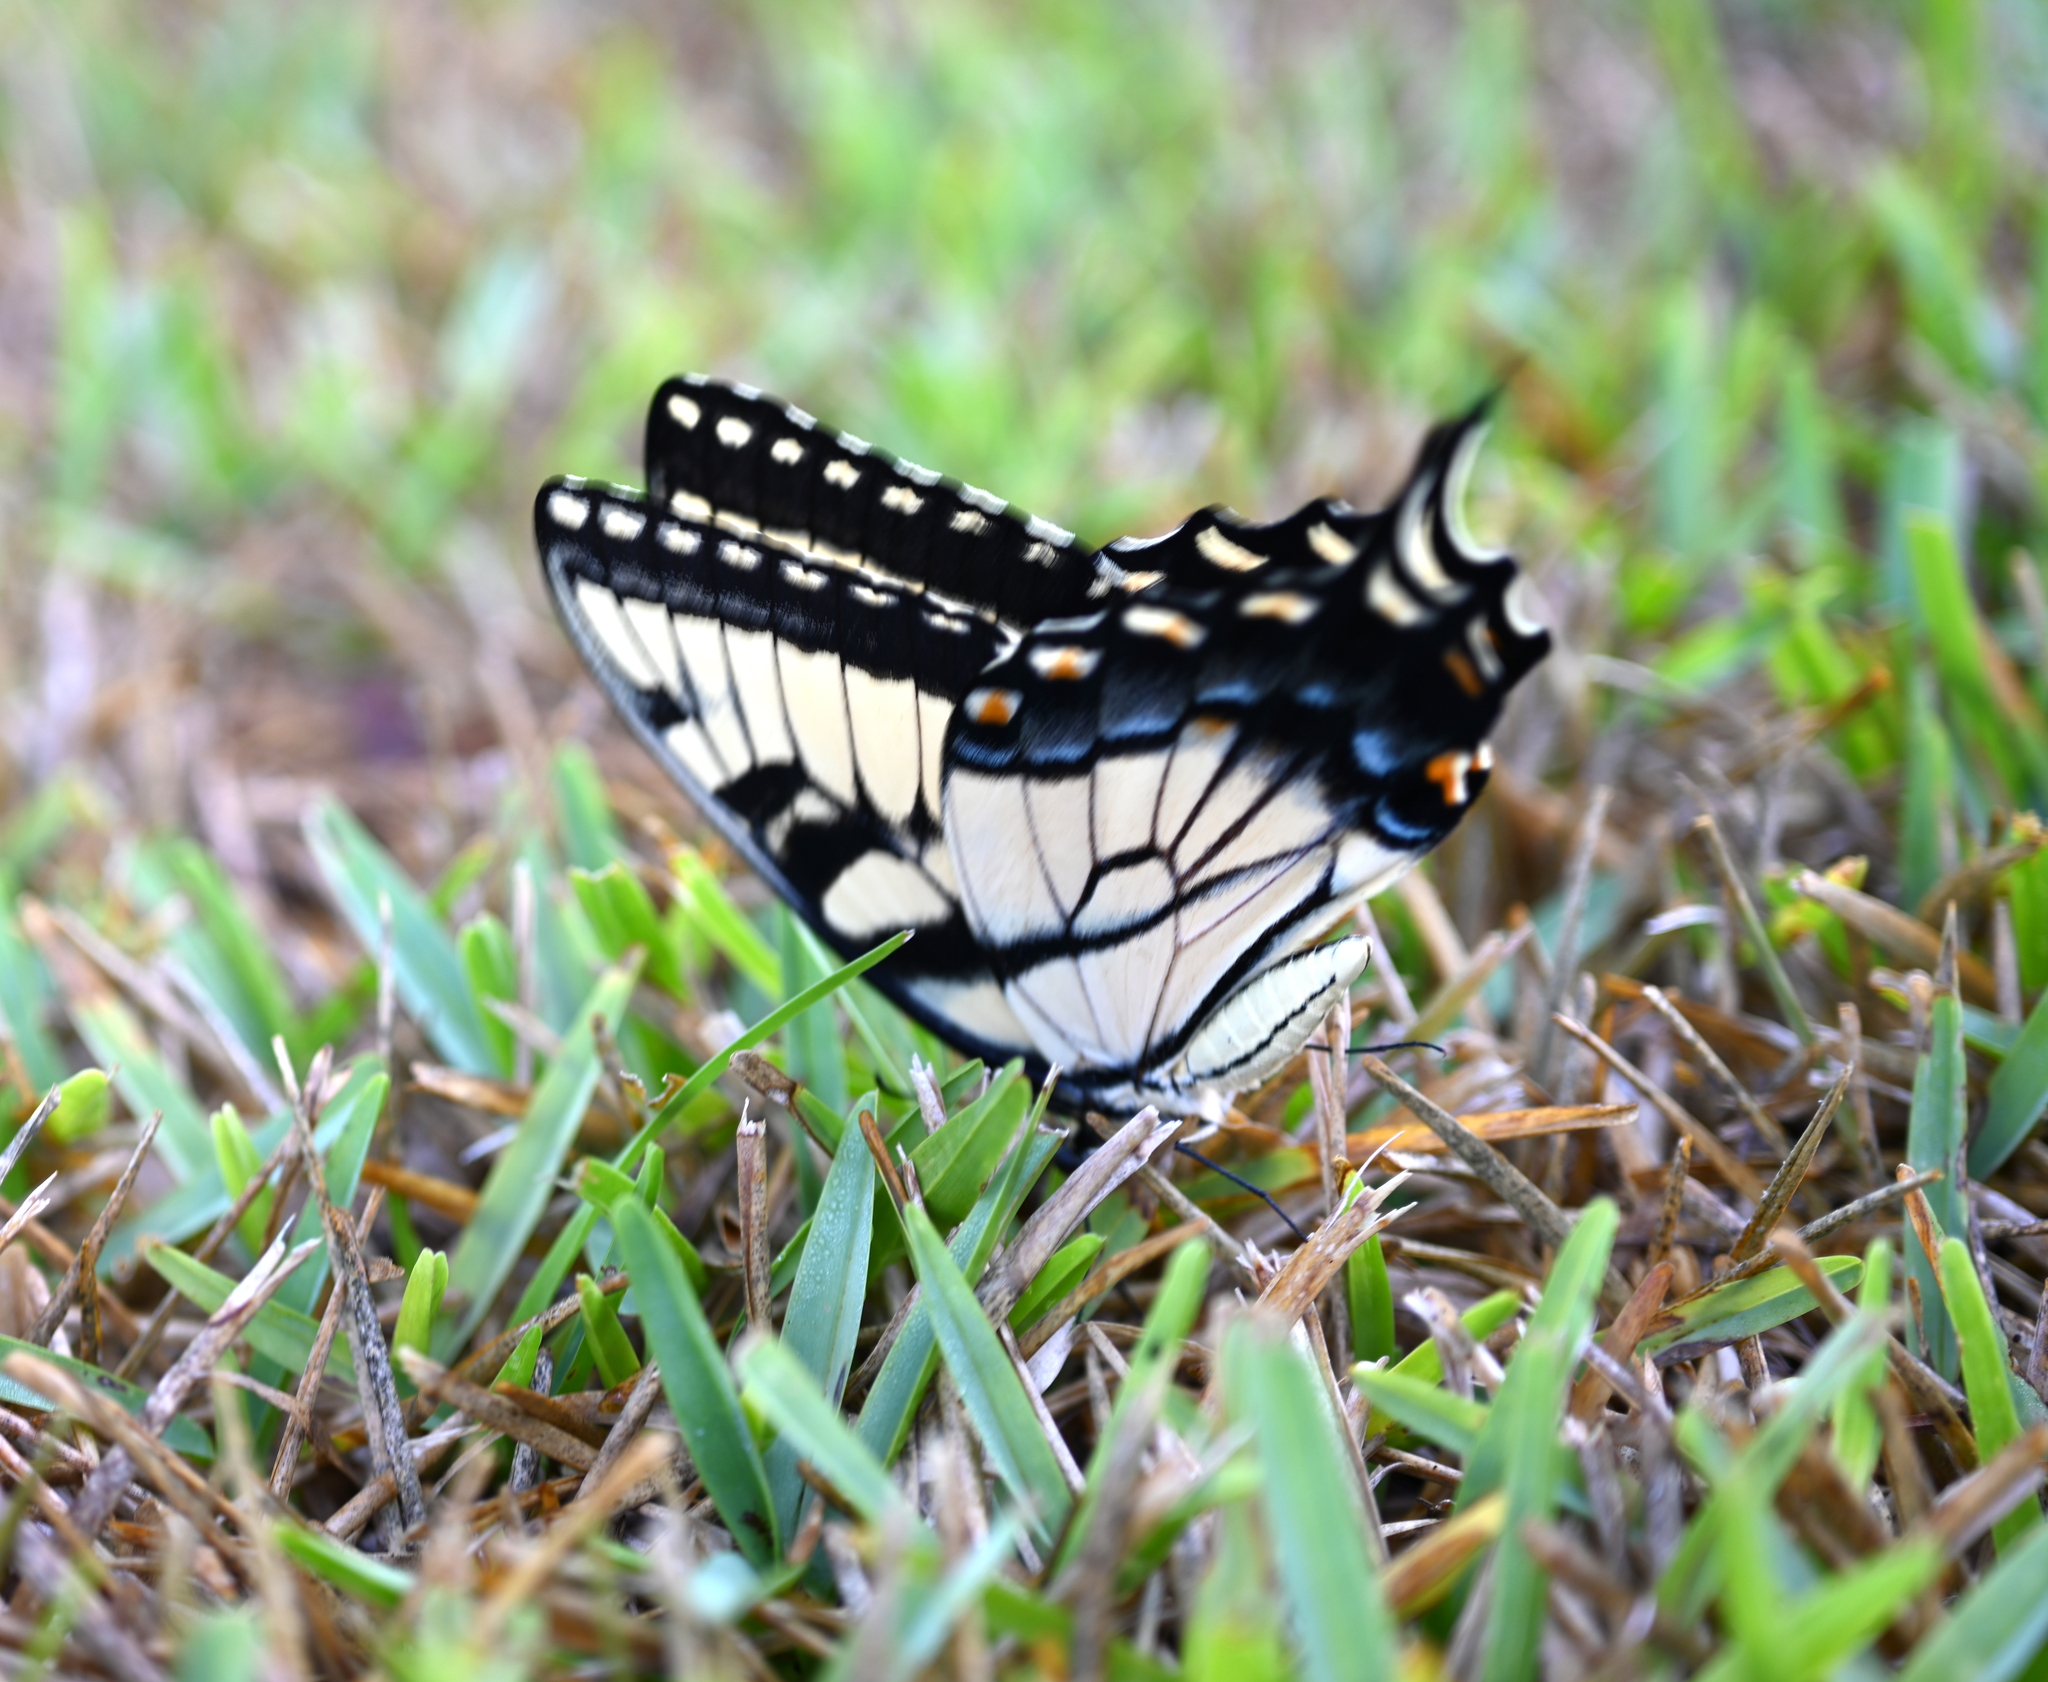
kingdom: Animalia
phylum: Arthropoda
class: Insecta
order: Lepidoptera
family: Papilionidae
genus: Papilio
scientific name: Papilio glaucus
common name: Tiger swallowtail
